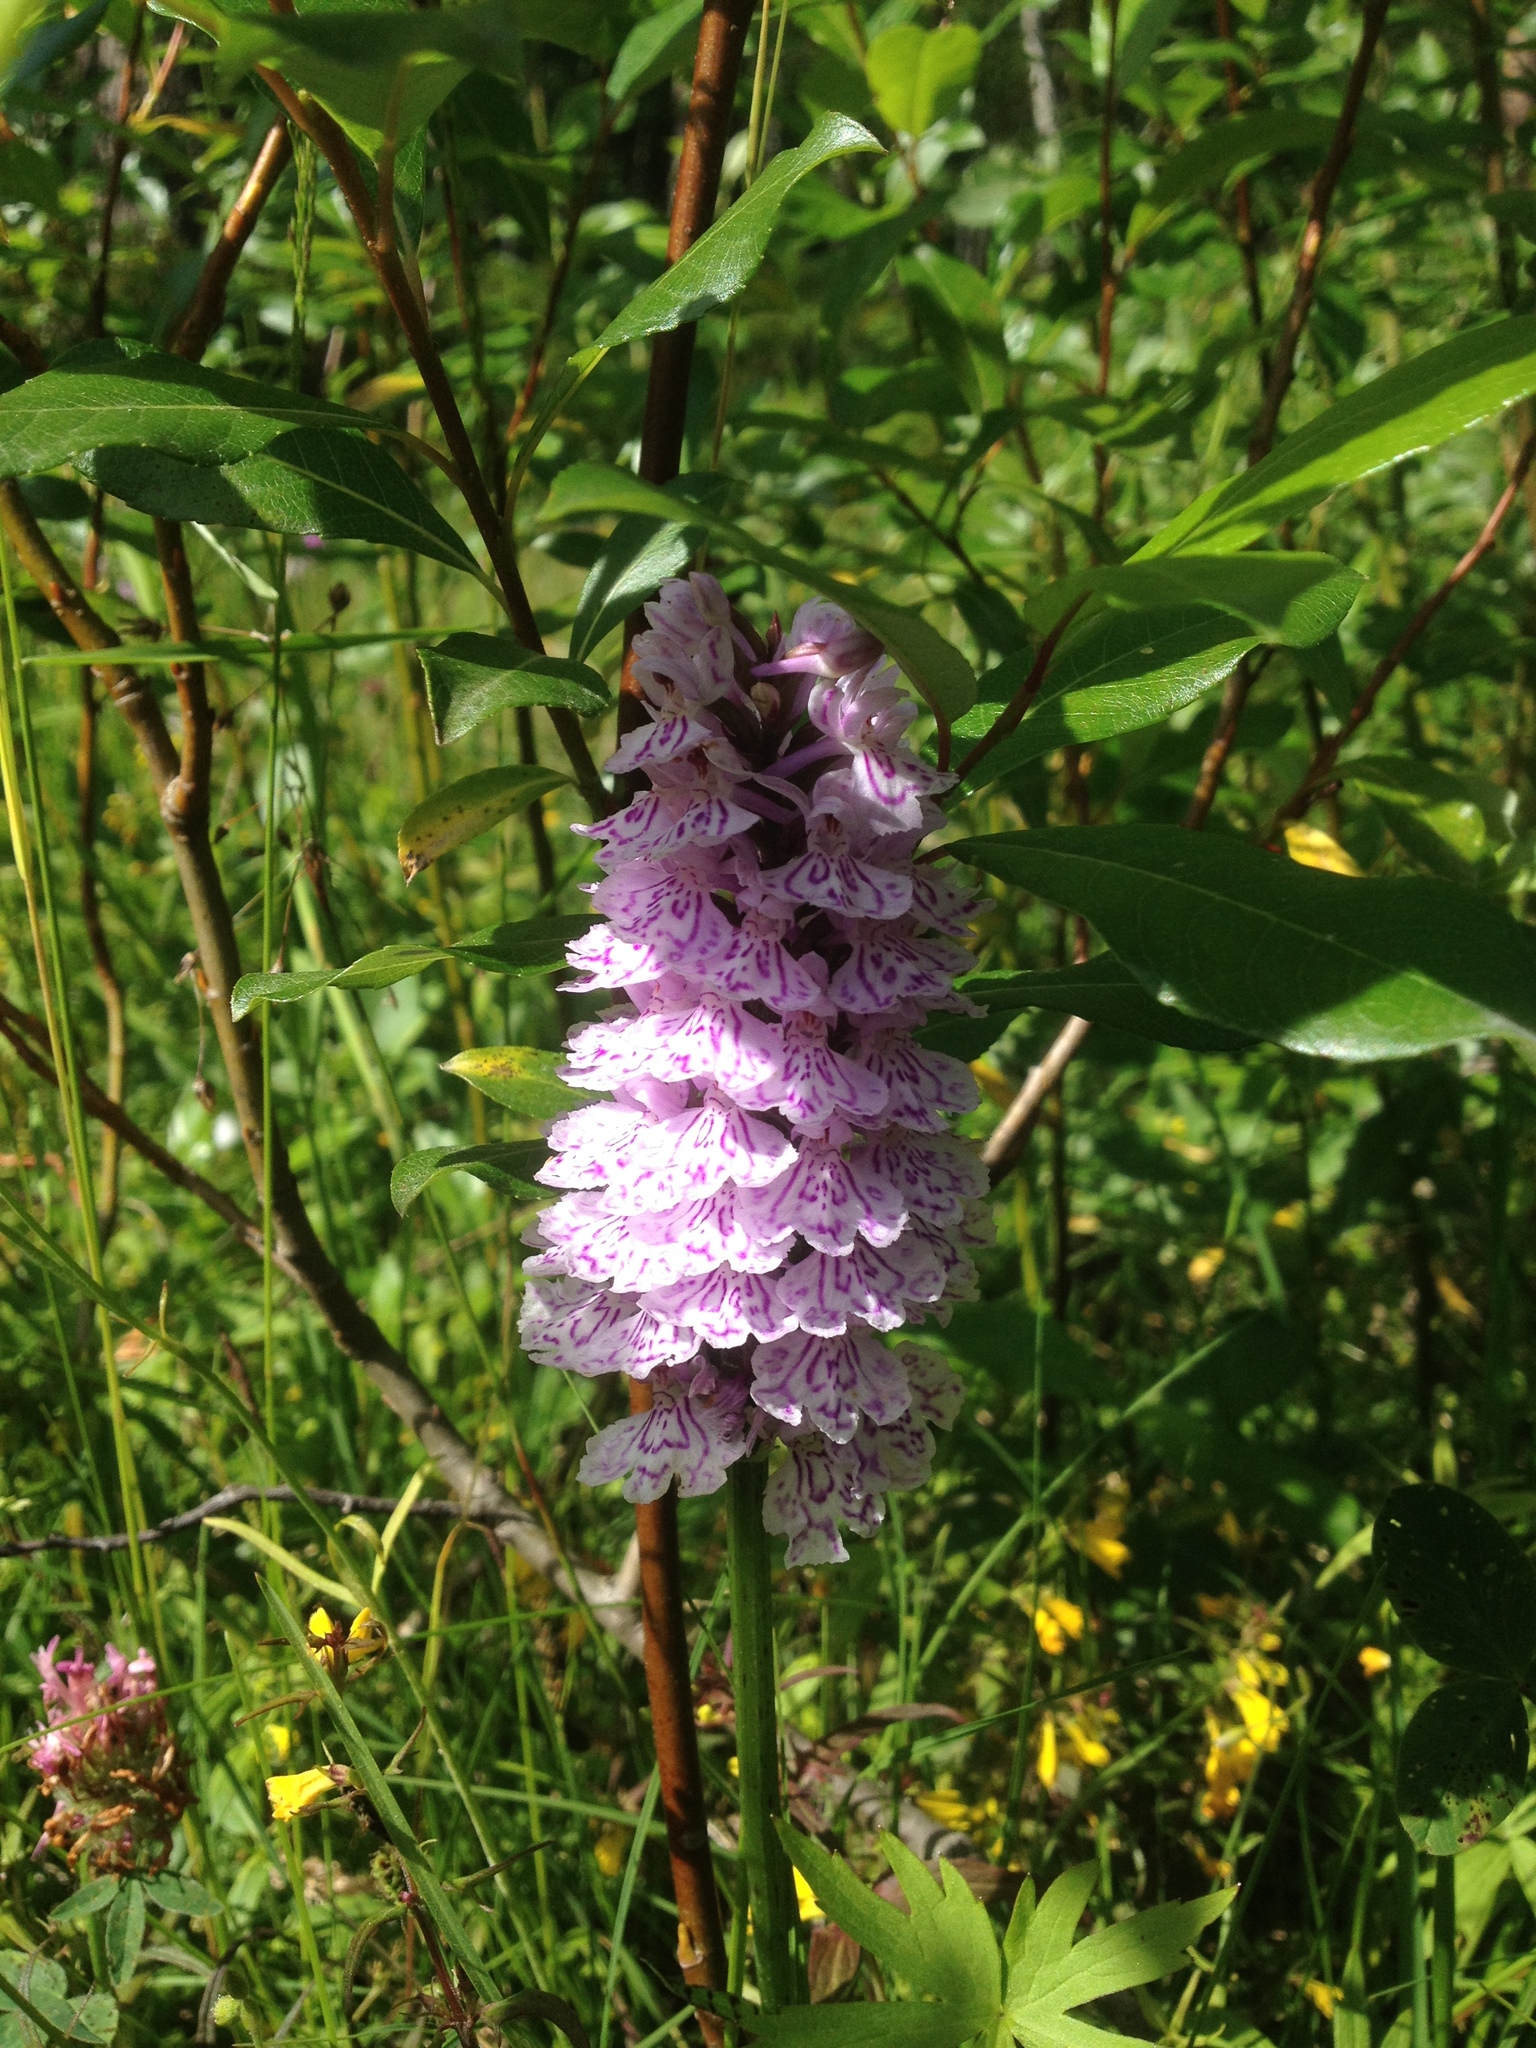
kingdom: Plantae
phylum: Tracheophyta
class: Liliopsida
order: Asparagales
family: Orchidaceae
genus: Dactylorhiza
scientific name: Dactylorhiza maculata
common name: Heath spotted-orchid
